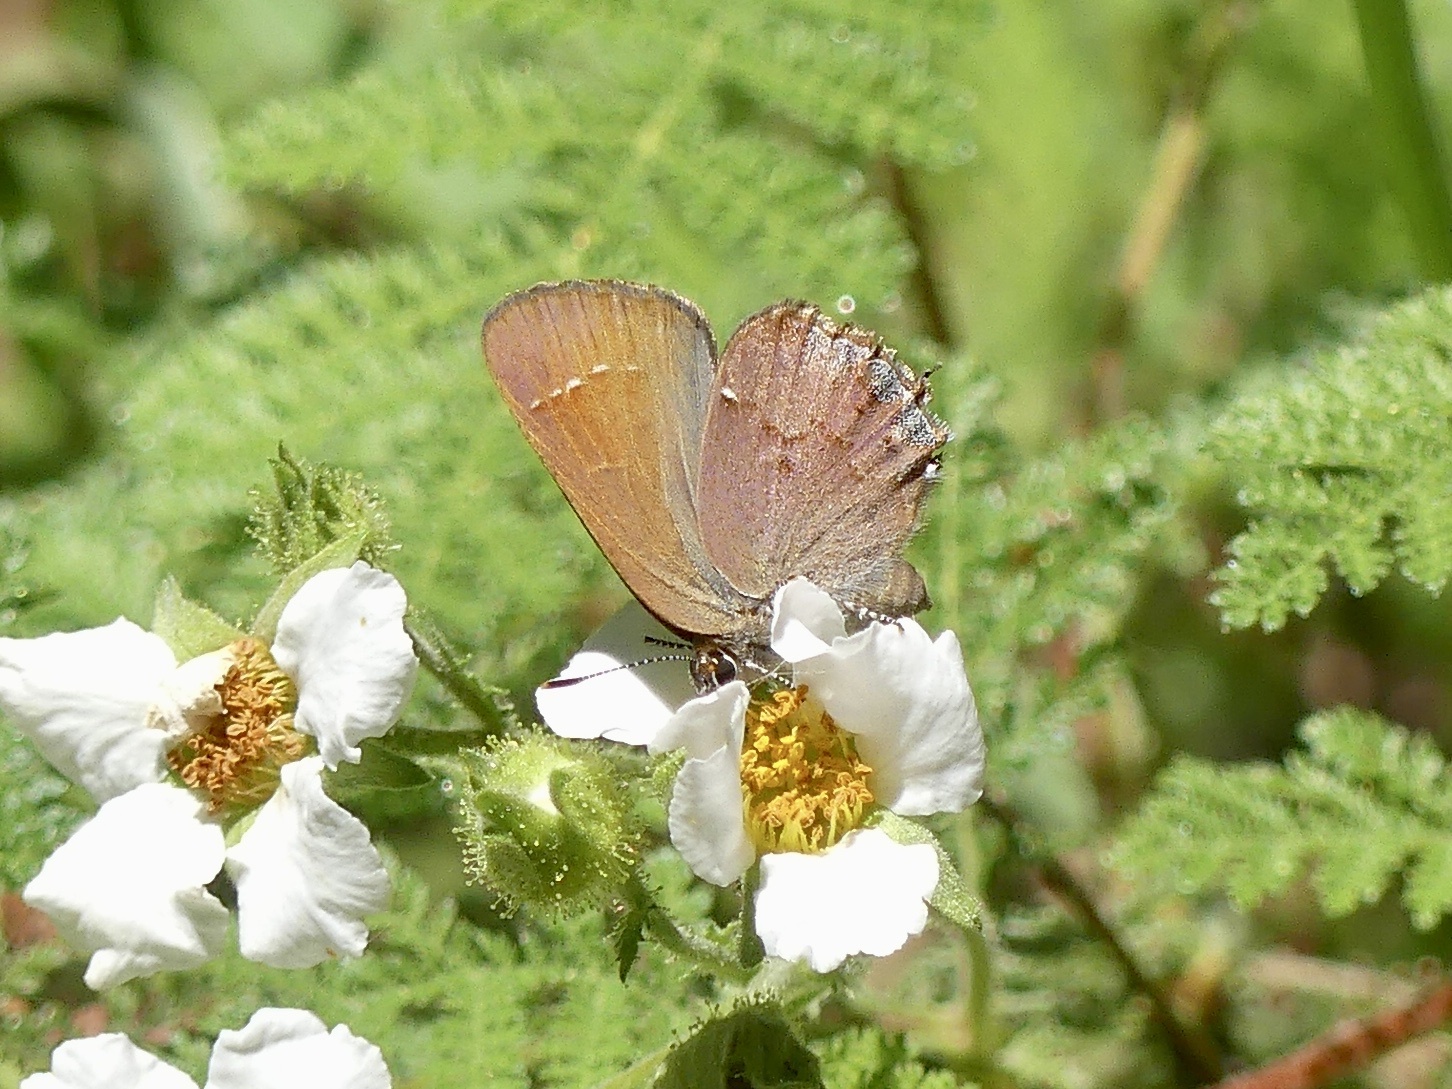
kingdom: Animalia
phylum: Arthropoda
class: Insecta
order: Lepidoptera
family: Lycaenidae
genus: Mitoura
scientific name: Mitoura gryneus
